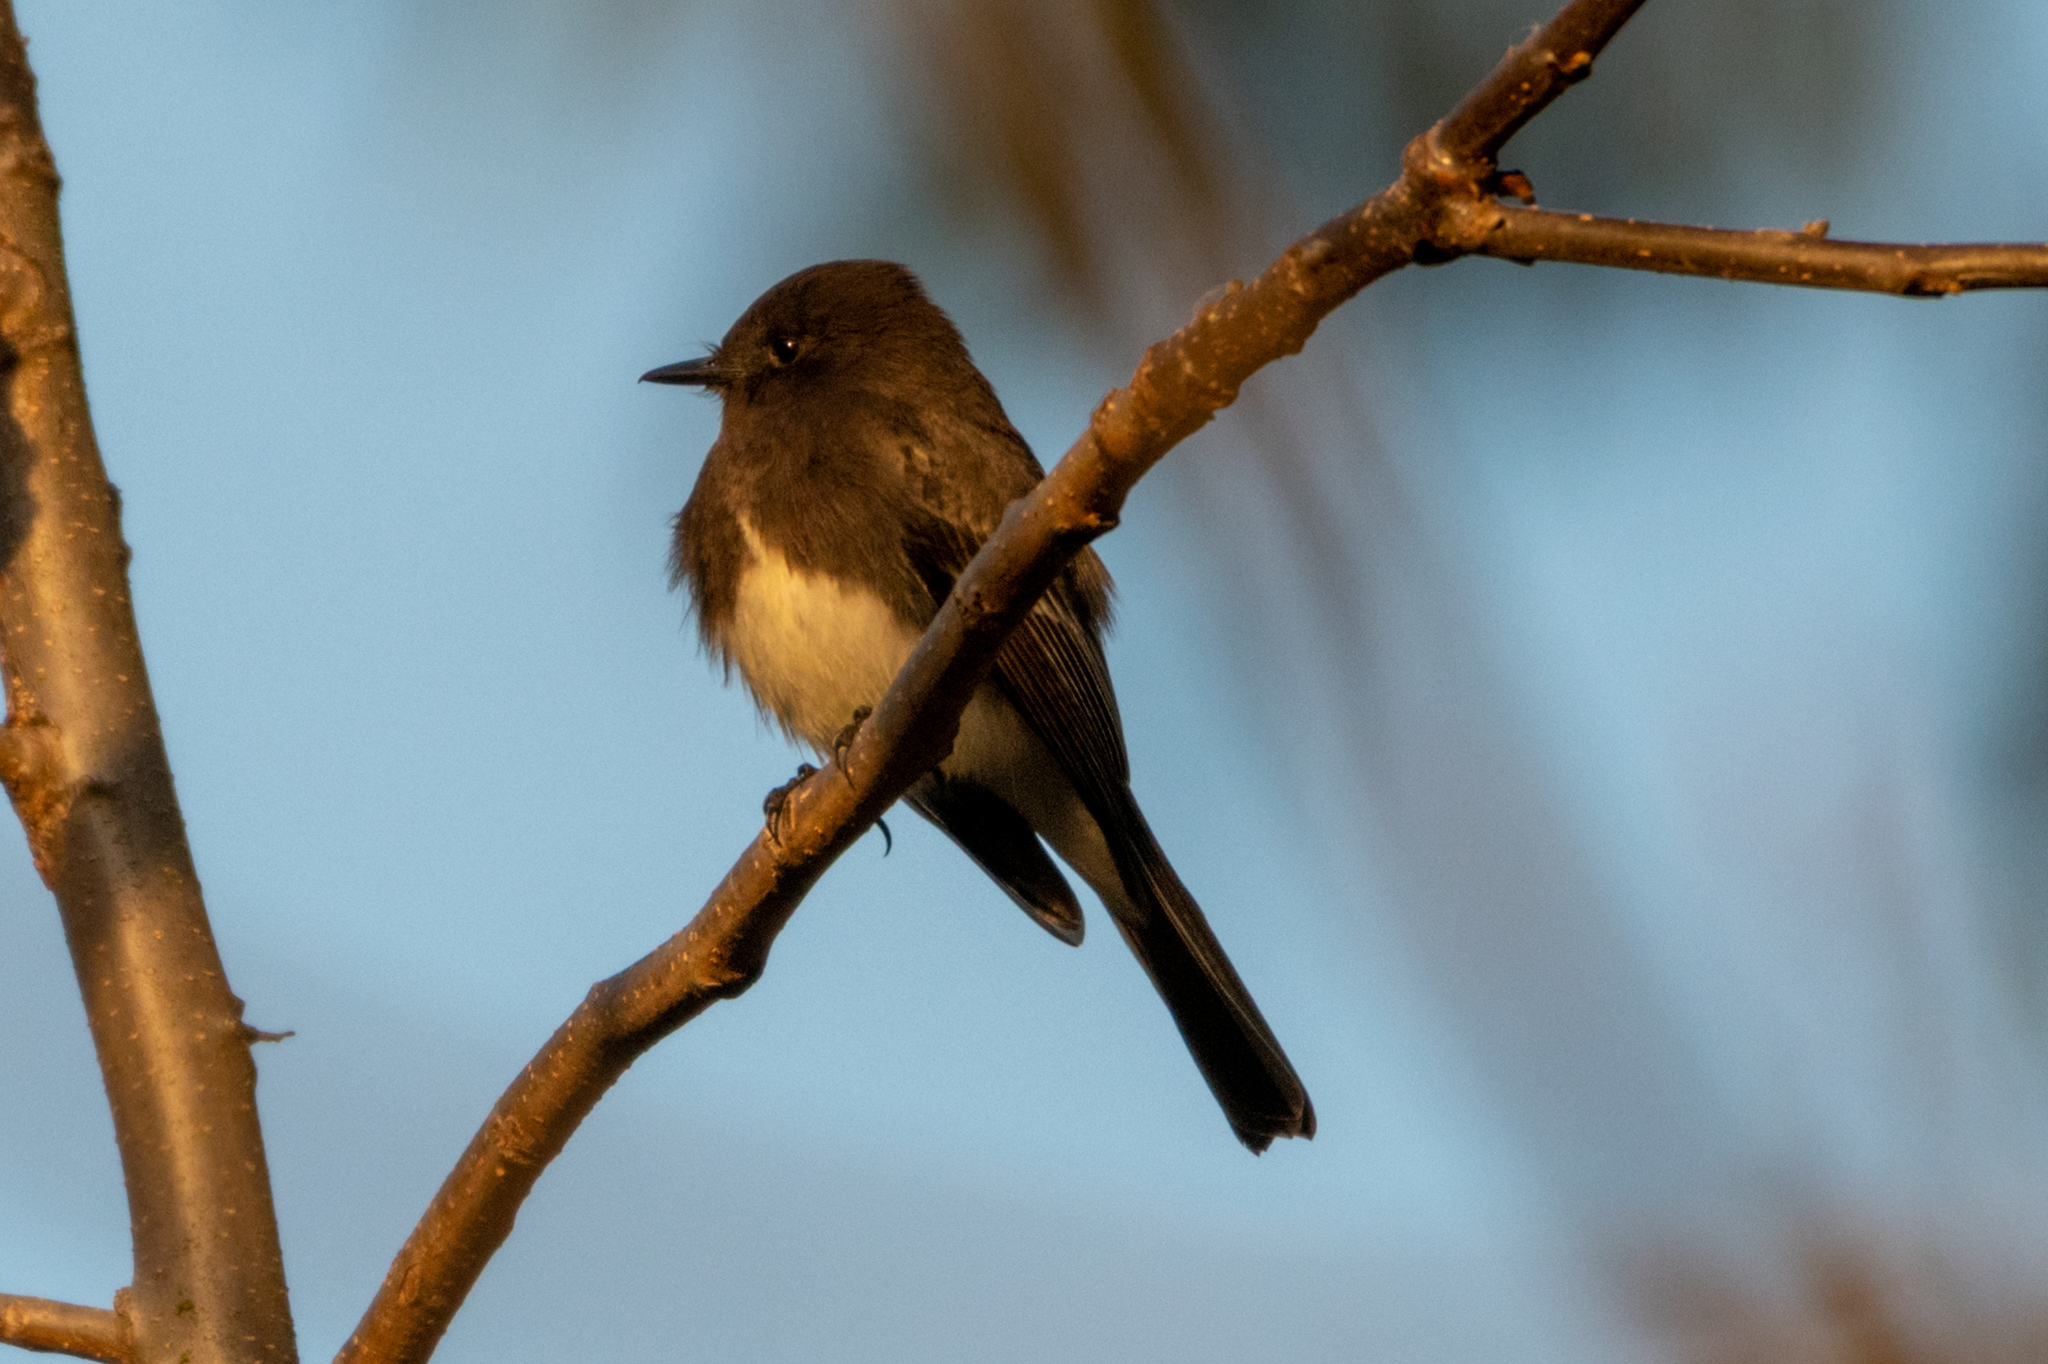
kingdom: Animalia
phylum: Chordata
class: Aves
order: Passeriformes
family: Tyrannidae
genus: Sayornis
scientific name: Sayornis nigricans
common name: Black phoebe
